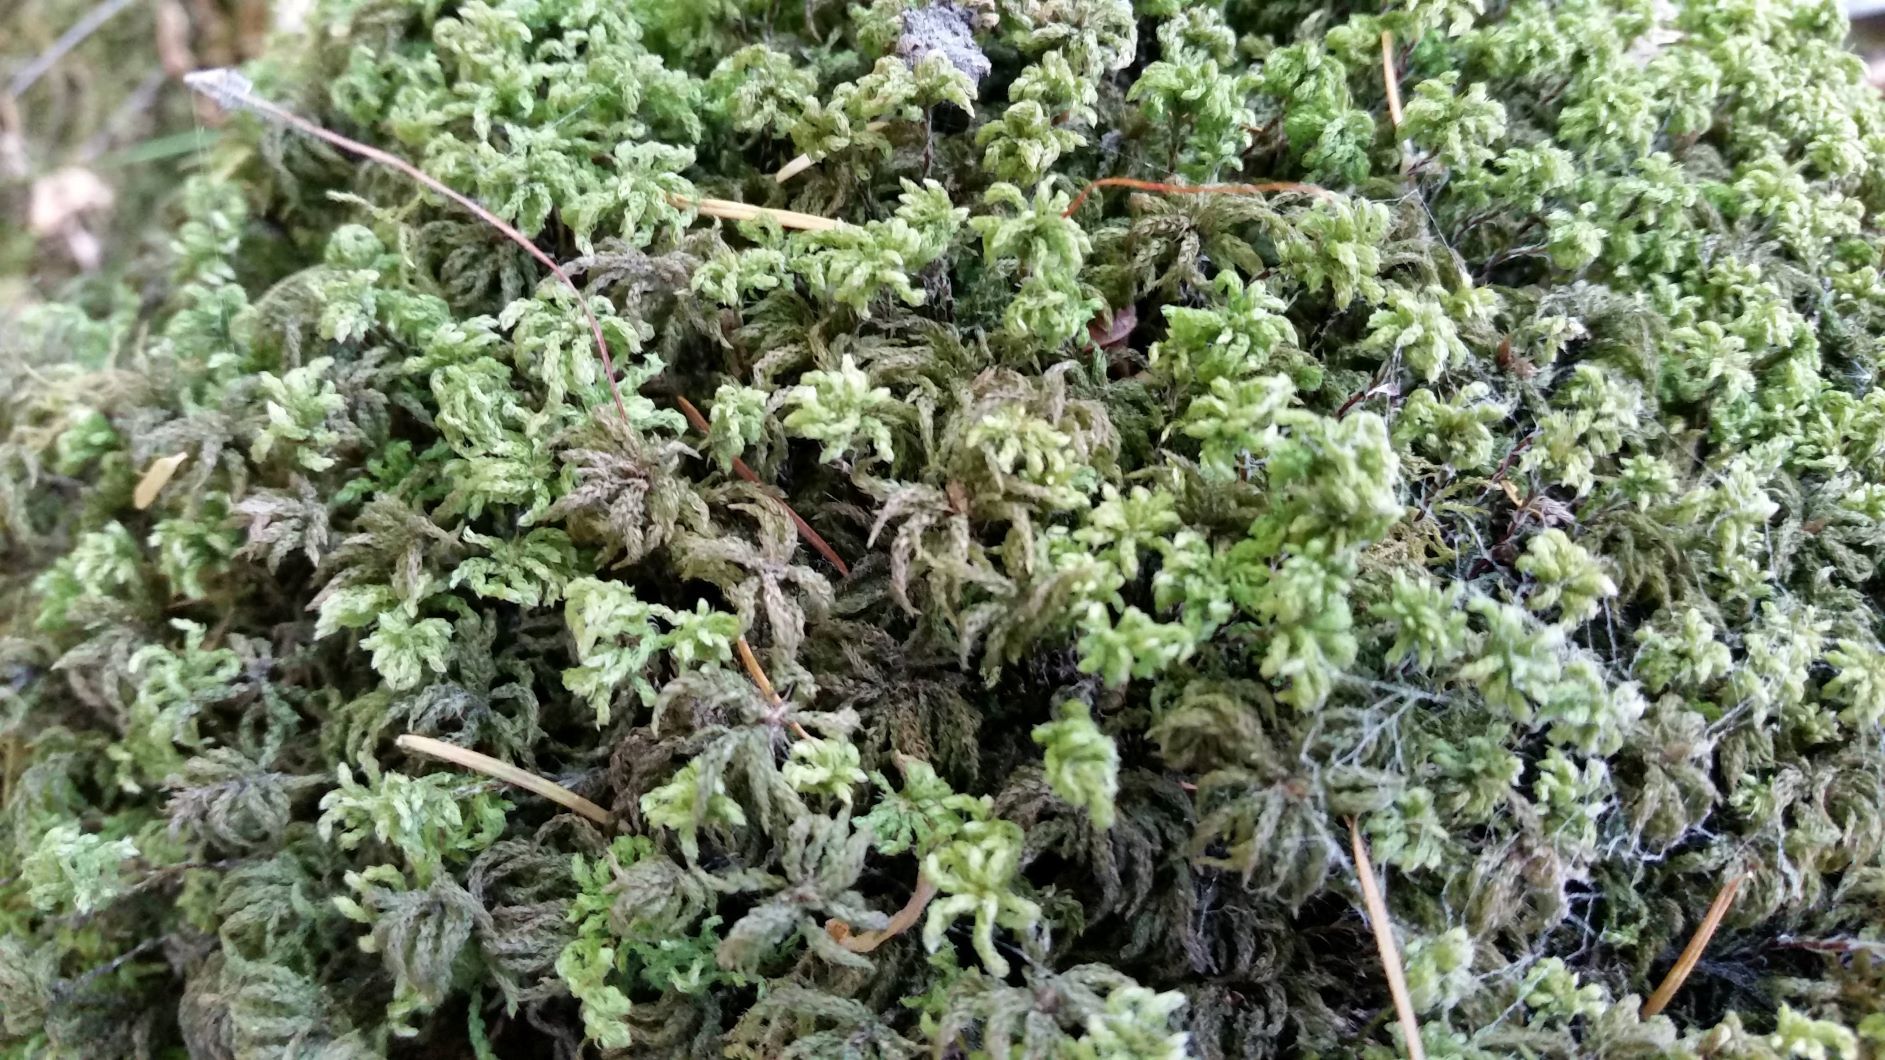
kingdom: Plantae
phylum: Bryophyta
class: Bryopsida
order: Bryales
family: Mniaceae
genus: Leucolepis
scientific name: Leucolepis acanthoneura
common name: Leucolepis umbrella moss
